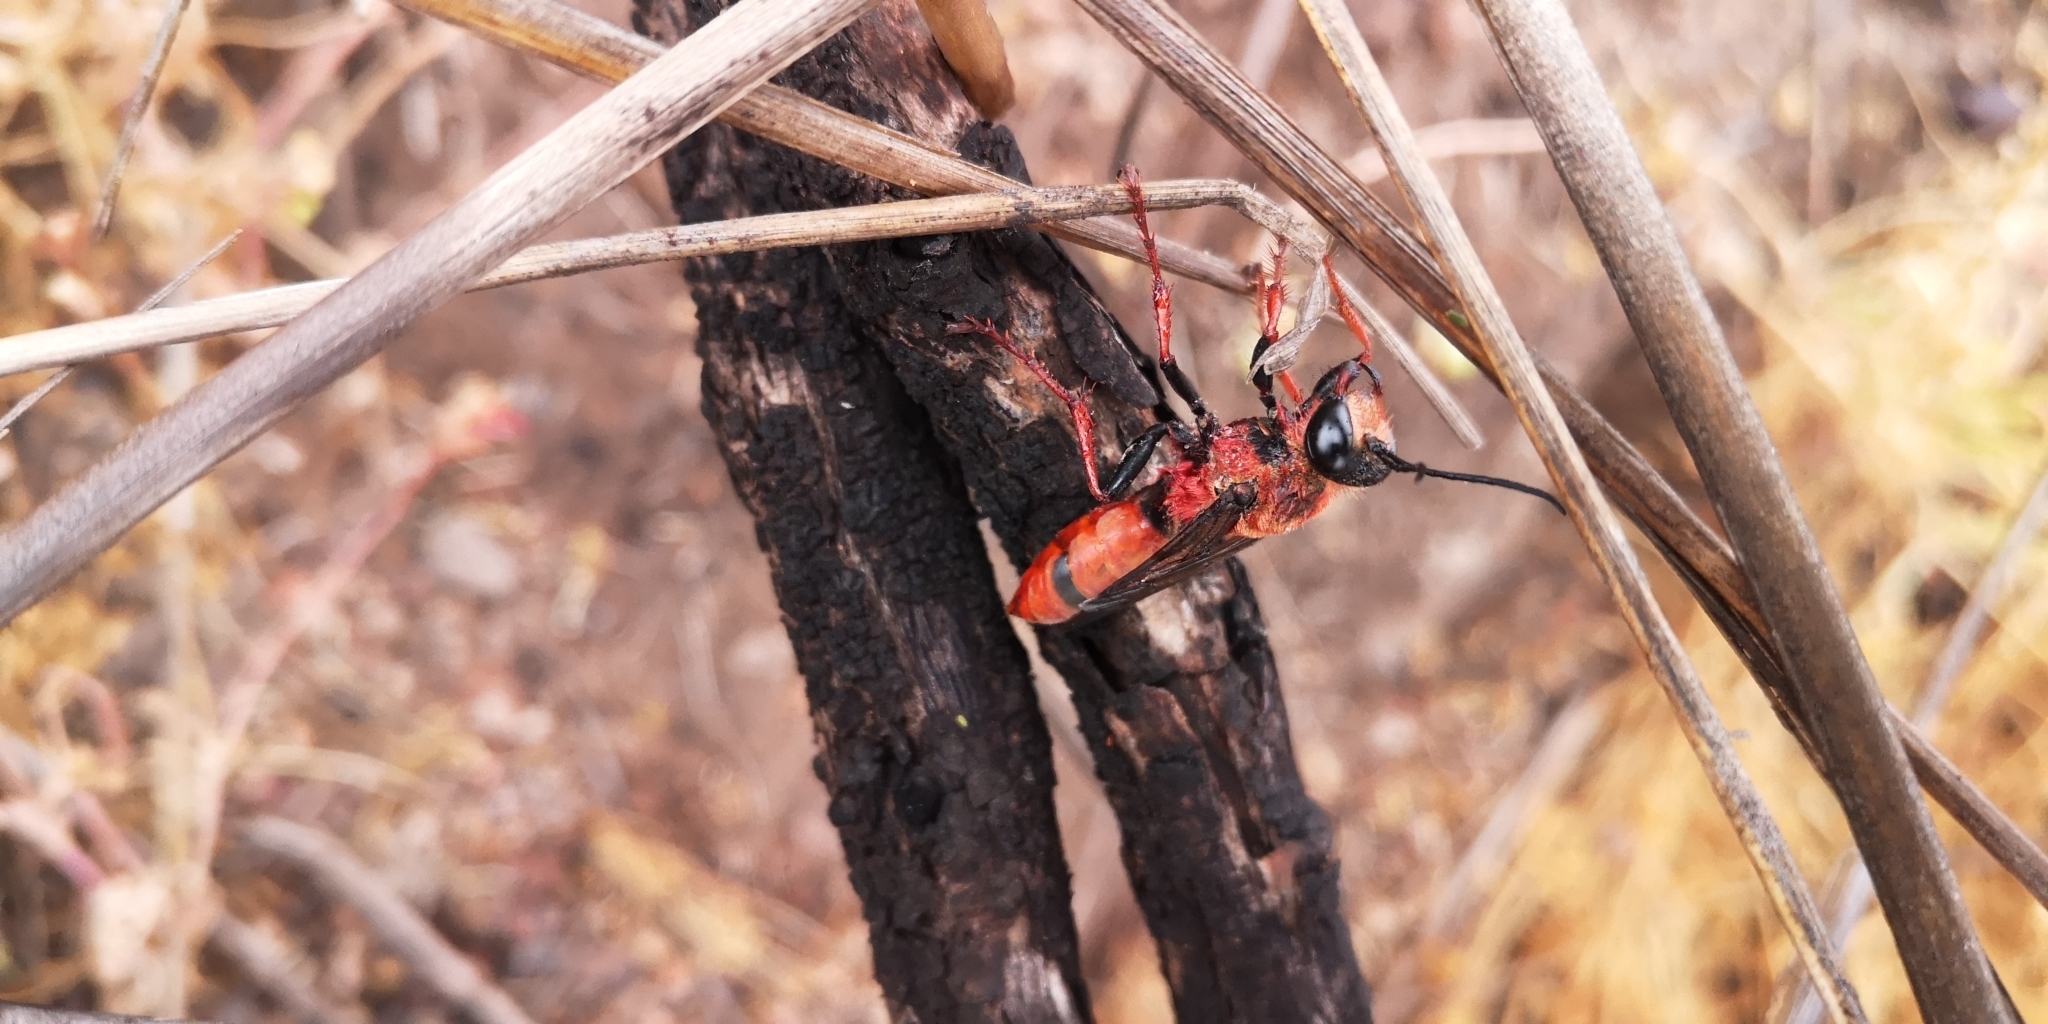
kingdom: Animalia
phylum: Arthropoda
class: Insecta
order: Hymenoptera
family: Sphecidae
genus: Sphex
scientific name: Sphex latreillei
